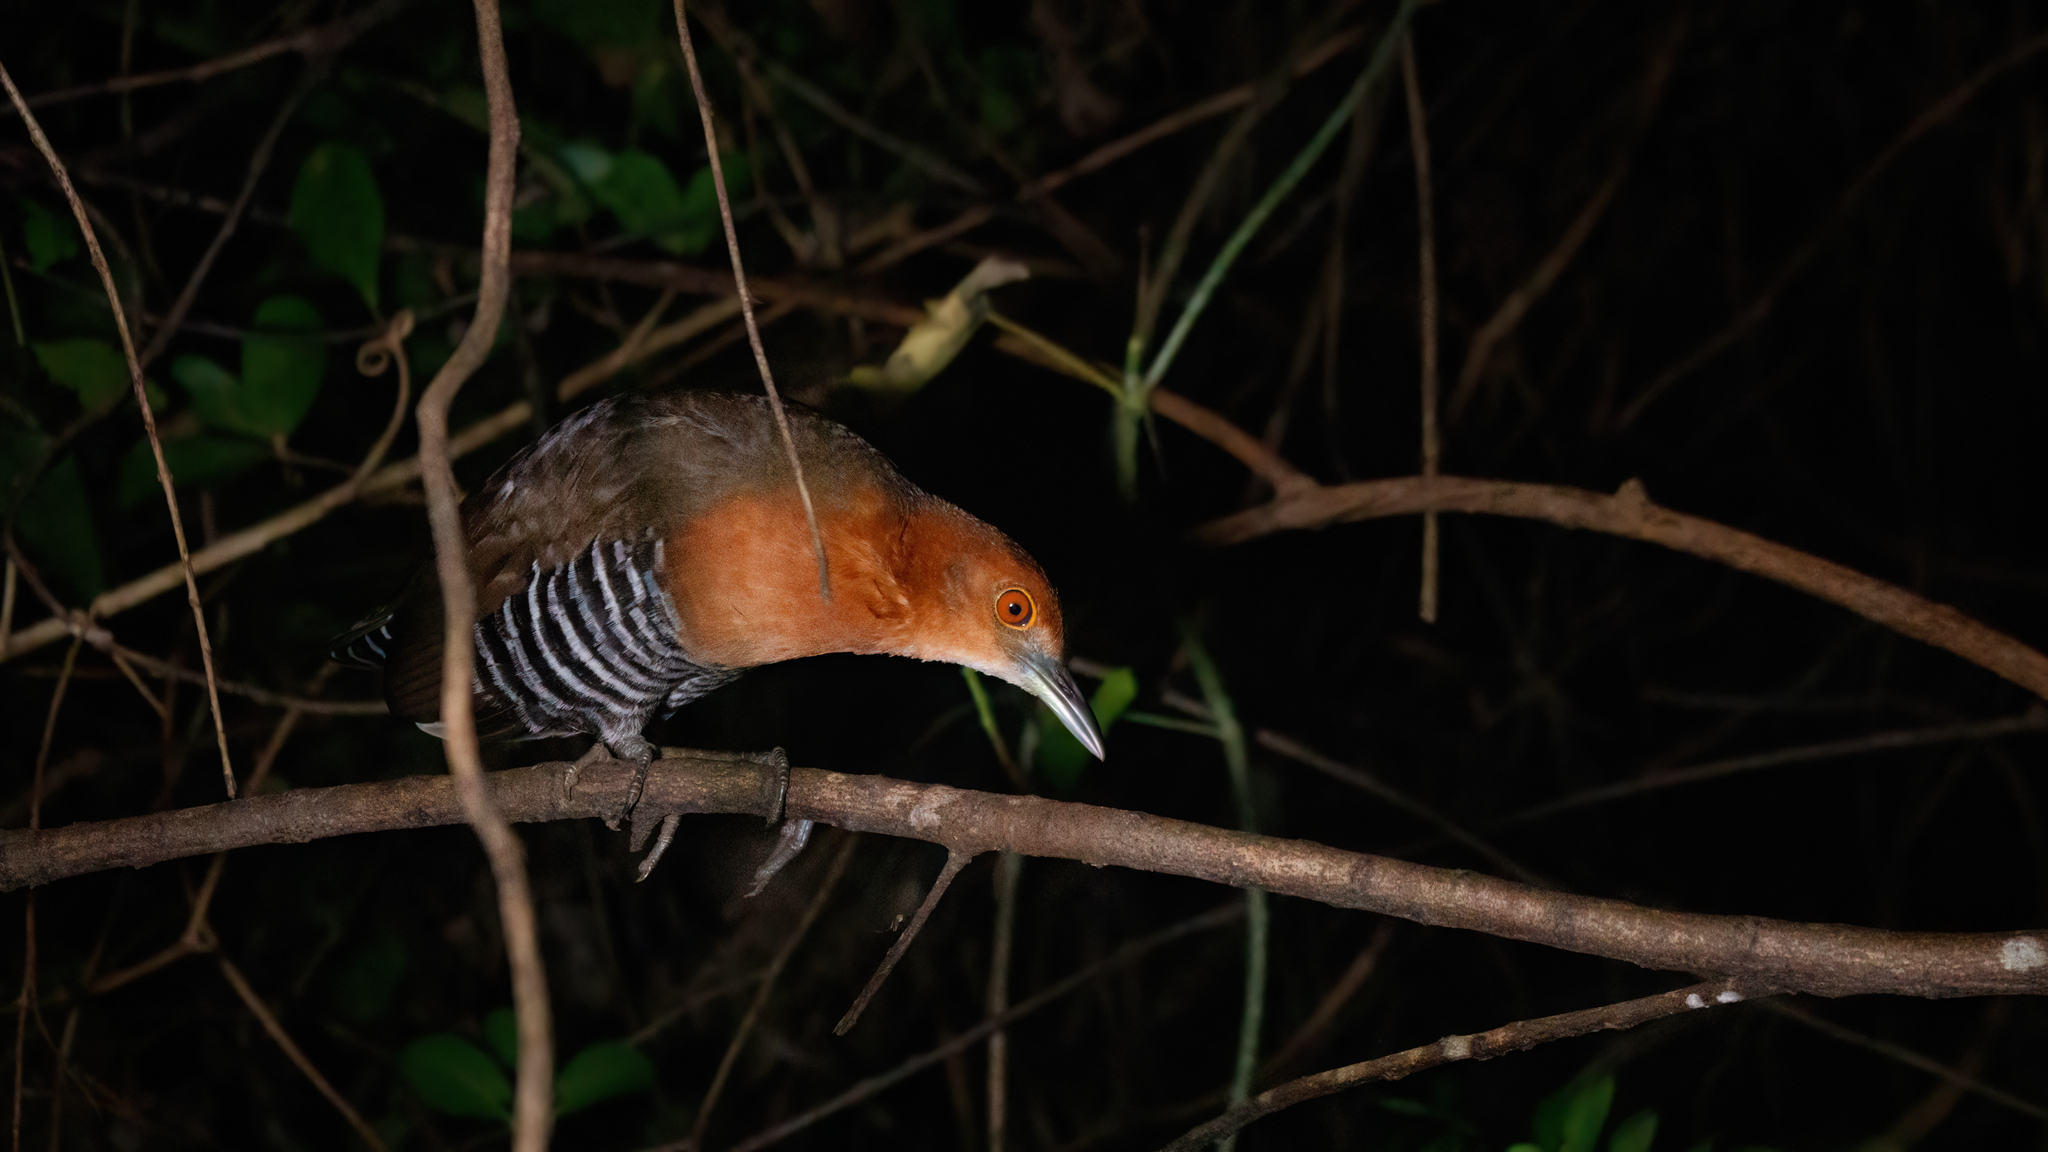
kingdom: Animalia
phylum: Chordata
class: Aves
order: Gruiformes
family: Rallidae
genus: Rallina
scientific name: Rallina eurizonoides
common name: Slaty-legged crake
